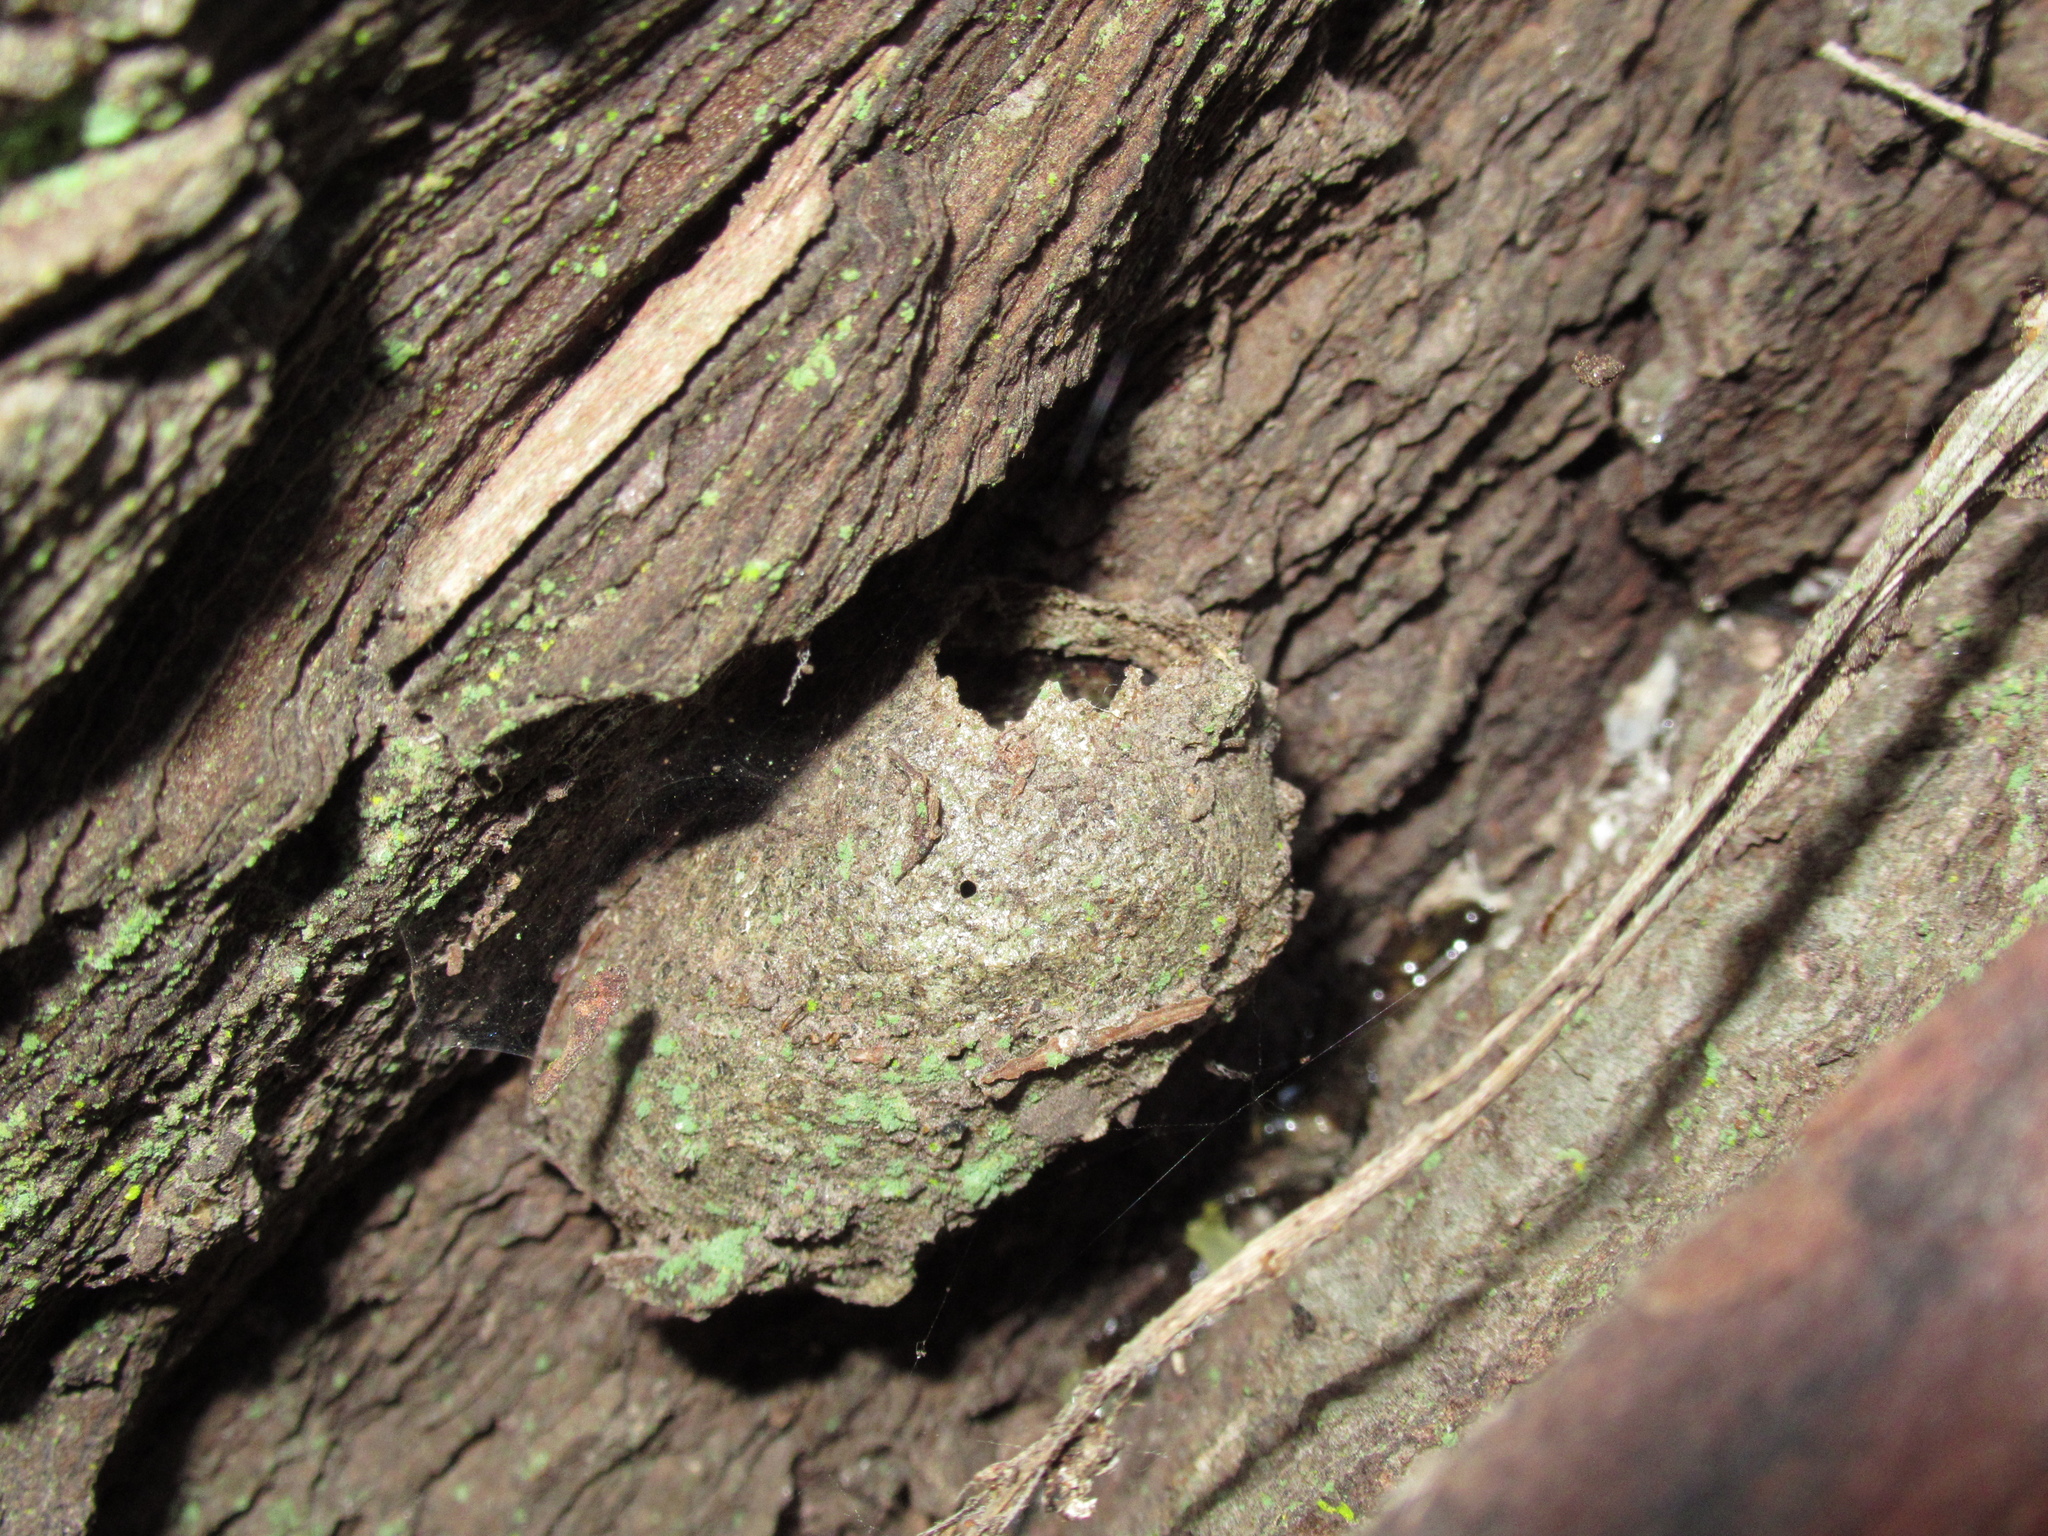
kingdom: Animalia
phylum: Arthropoda
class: Insecta
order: Lepidoptera
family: Saturniidae
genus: Opodiphthera
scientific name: Opodiphthera
